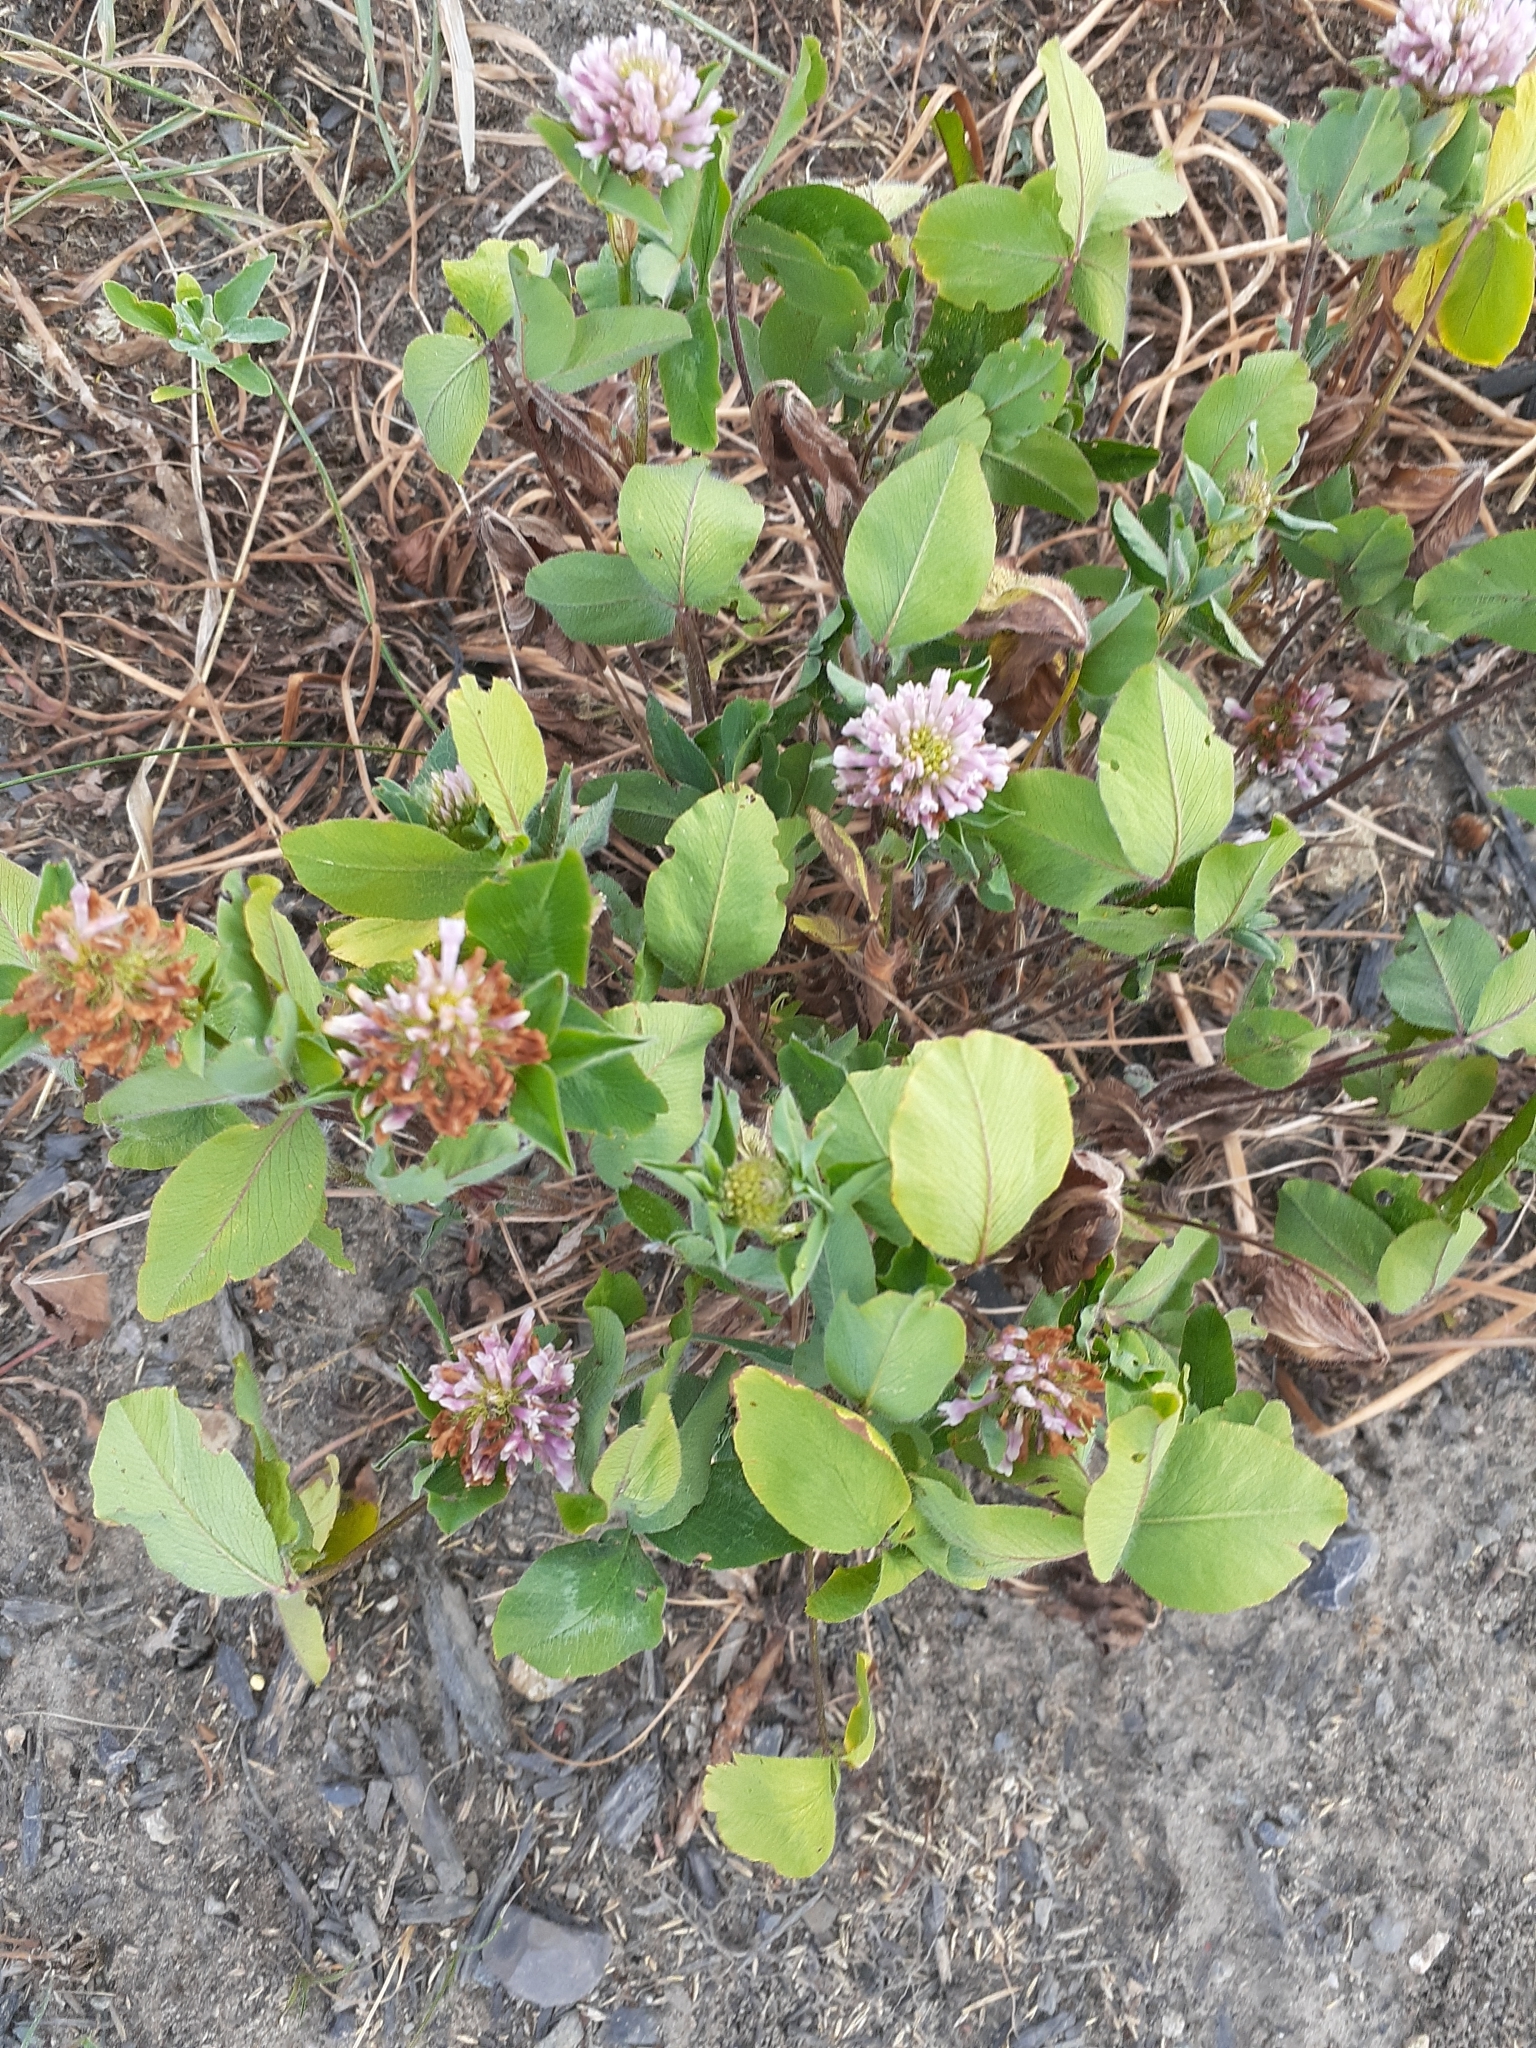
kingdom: Plantae
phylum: Tracheophyta
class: Magnoliopsida
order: Fabales
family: Fabaceae
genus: Trifolium
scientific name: Trifolium pratense
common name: Red clover
